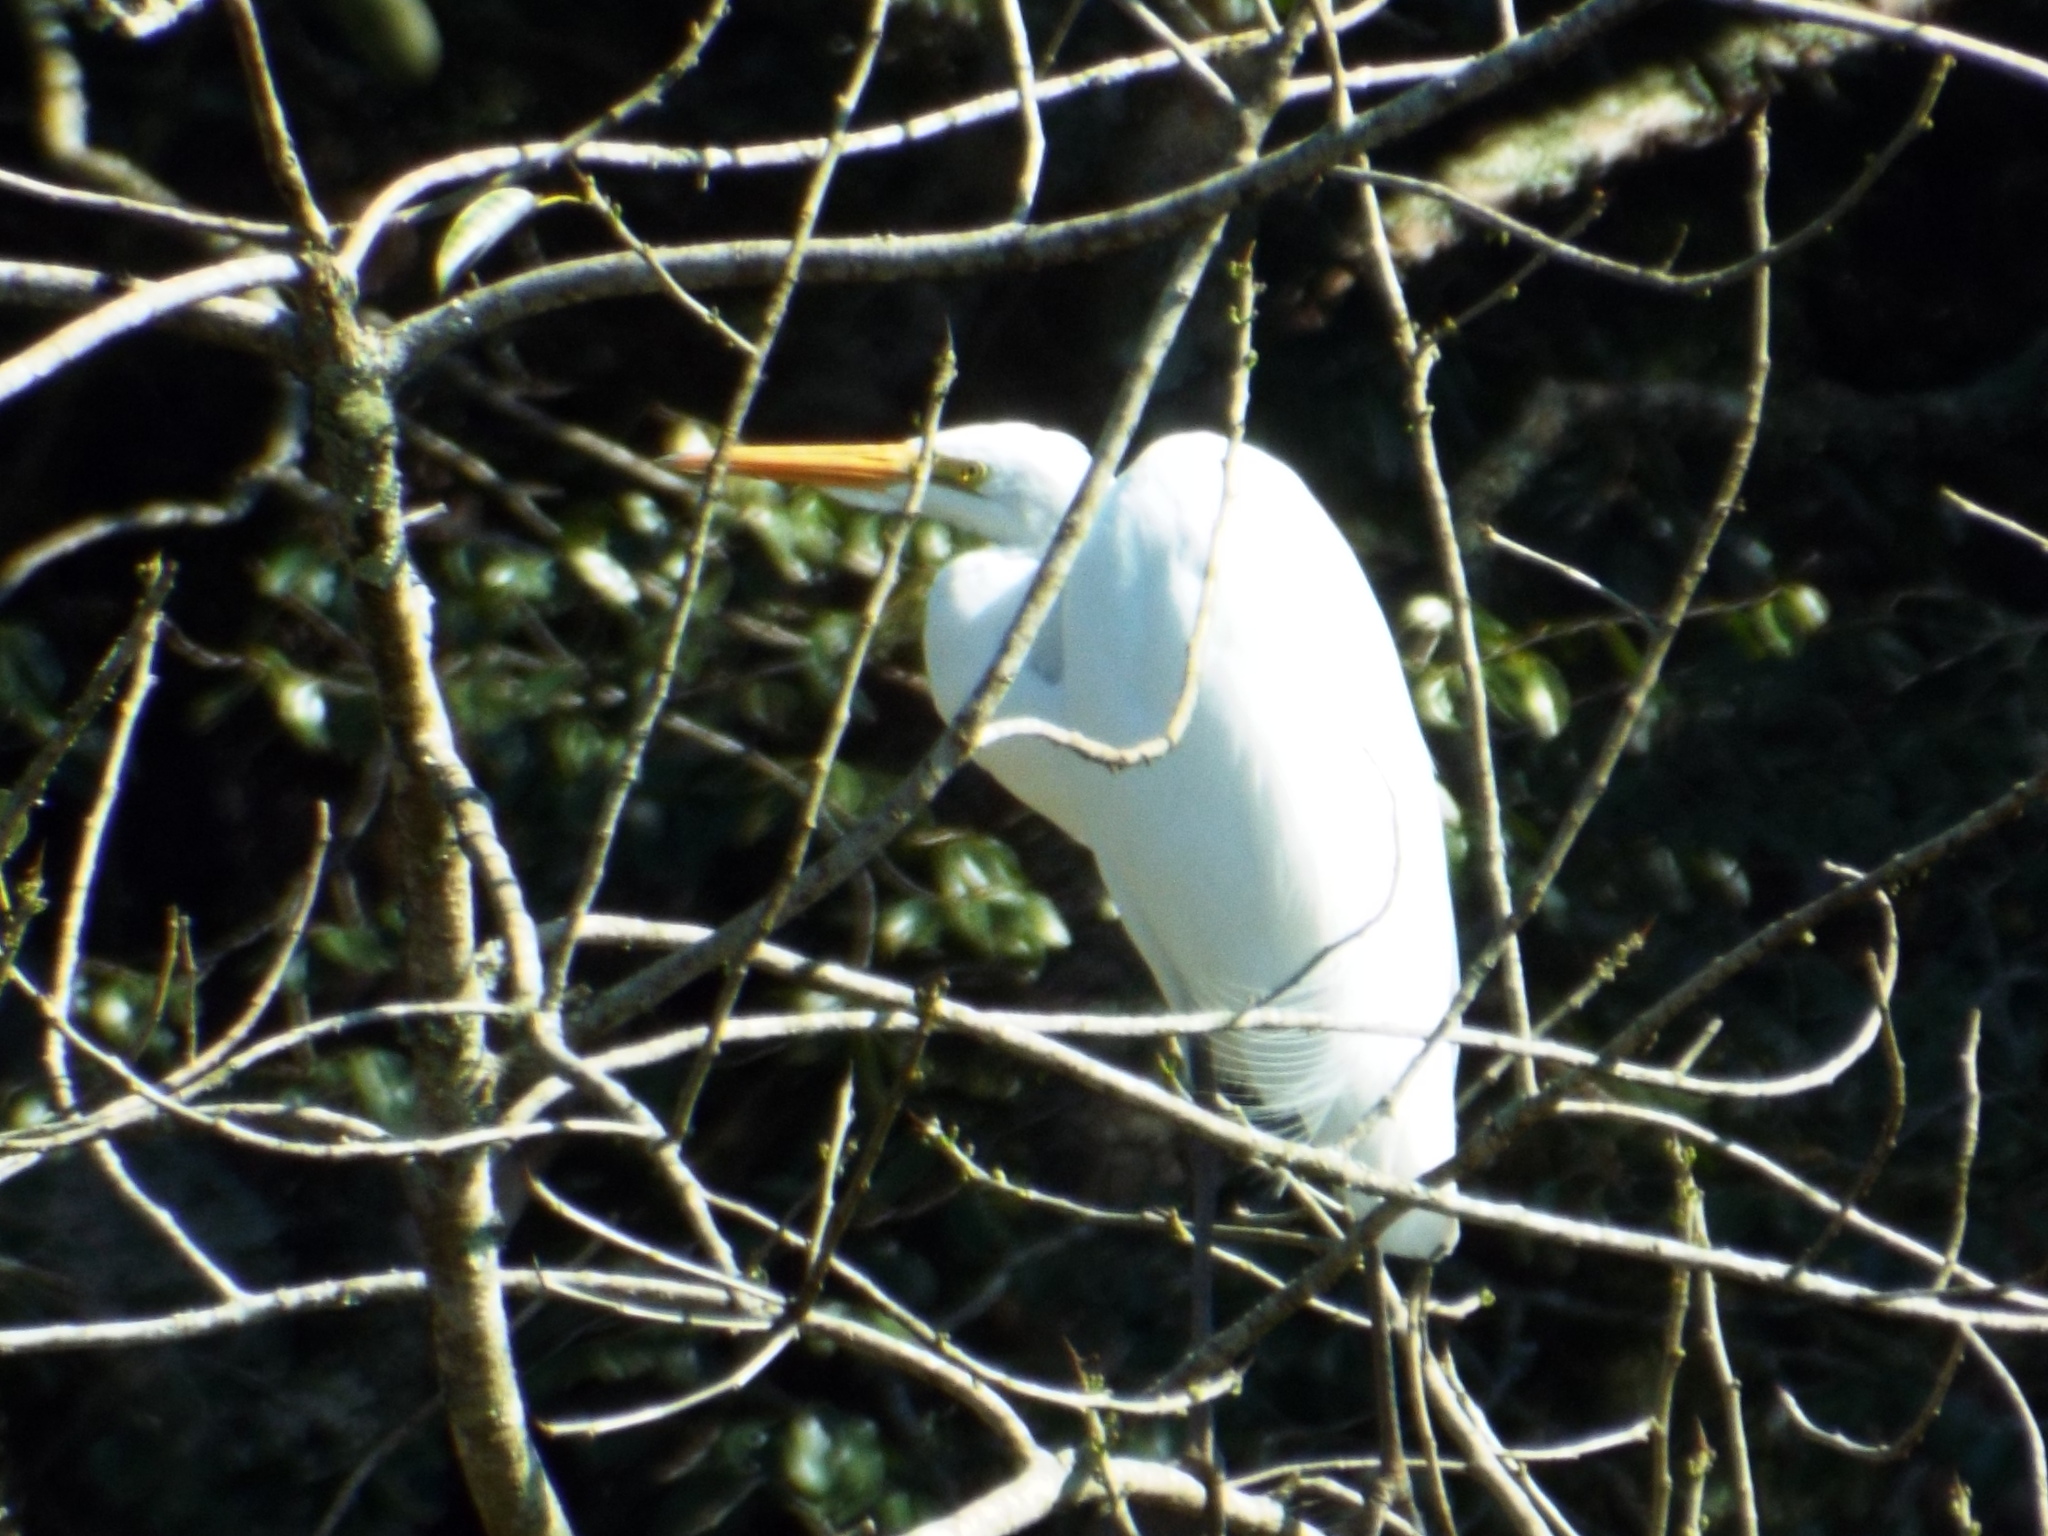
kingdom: Animalia
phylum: Chordata
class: Aves
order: Pelecaniformes
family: Ardeidae
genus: Ardea
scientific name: Ardea alba
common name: Great egret
